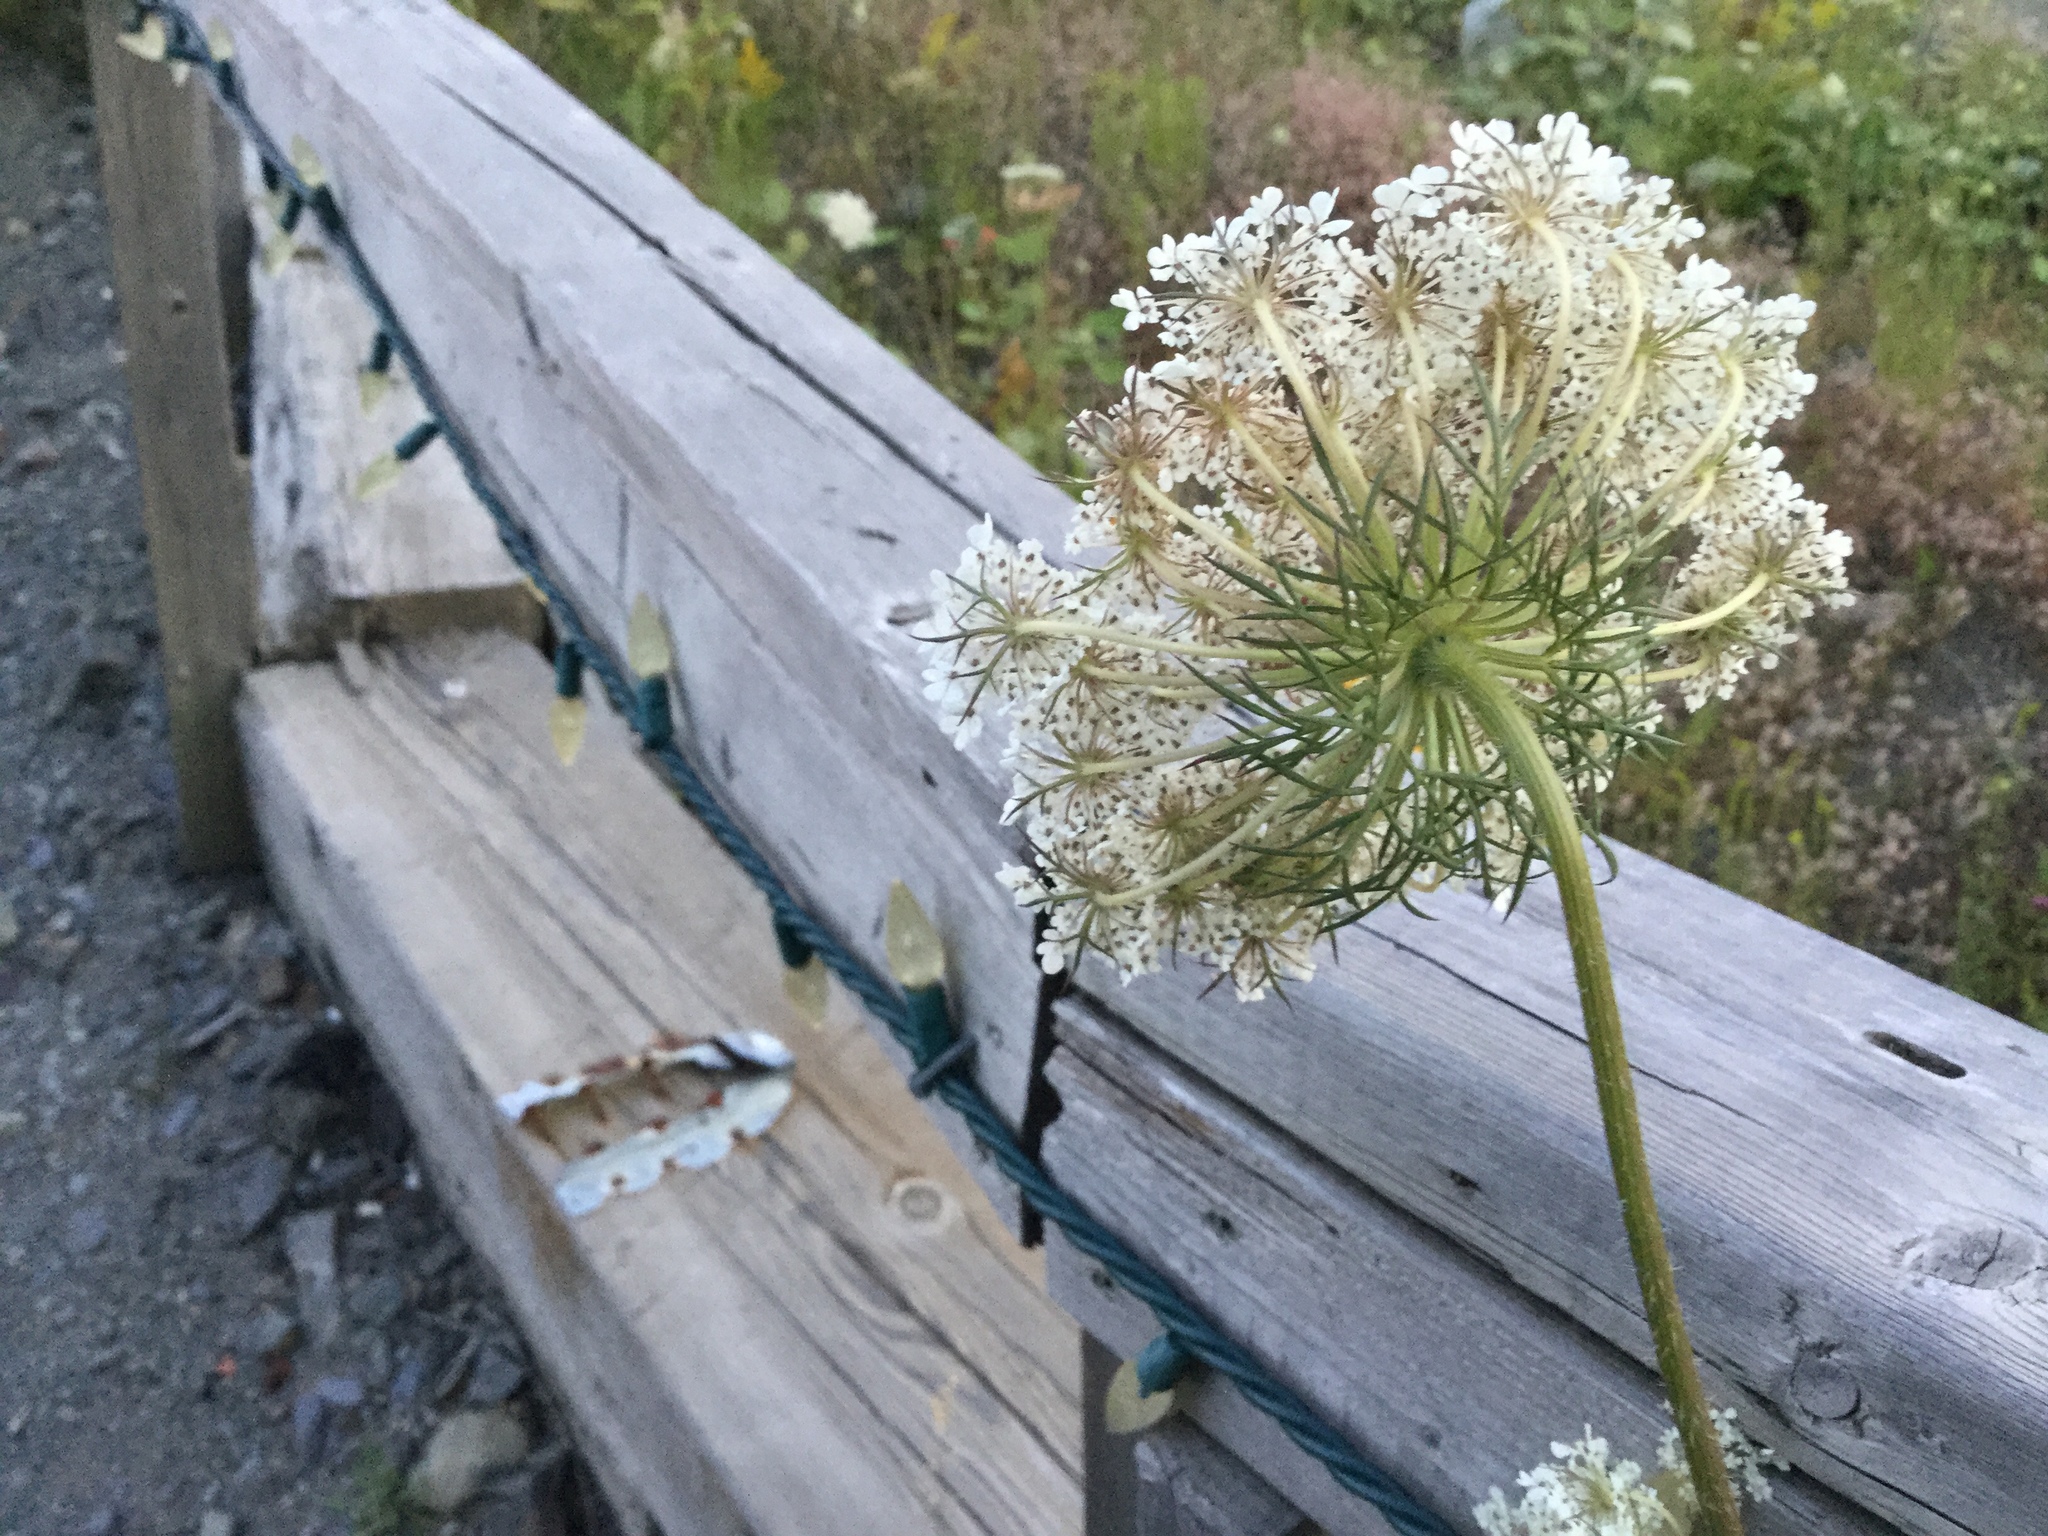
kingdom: Plantae
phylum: Tracheophyta
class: Magnoliopsida
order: Apiales
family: Apiaceae
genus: Daucus
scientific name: Daucus carota
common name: Wild carrot
